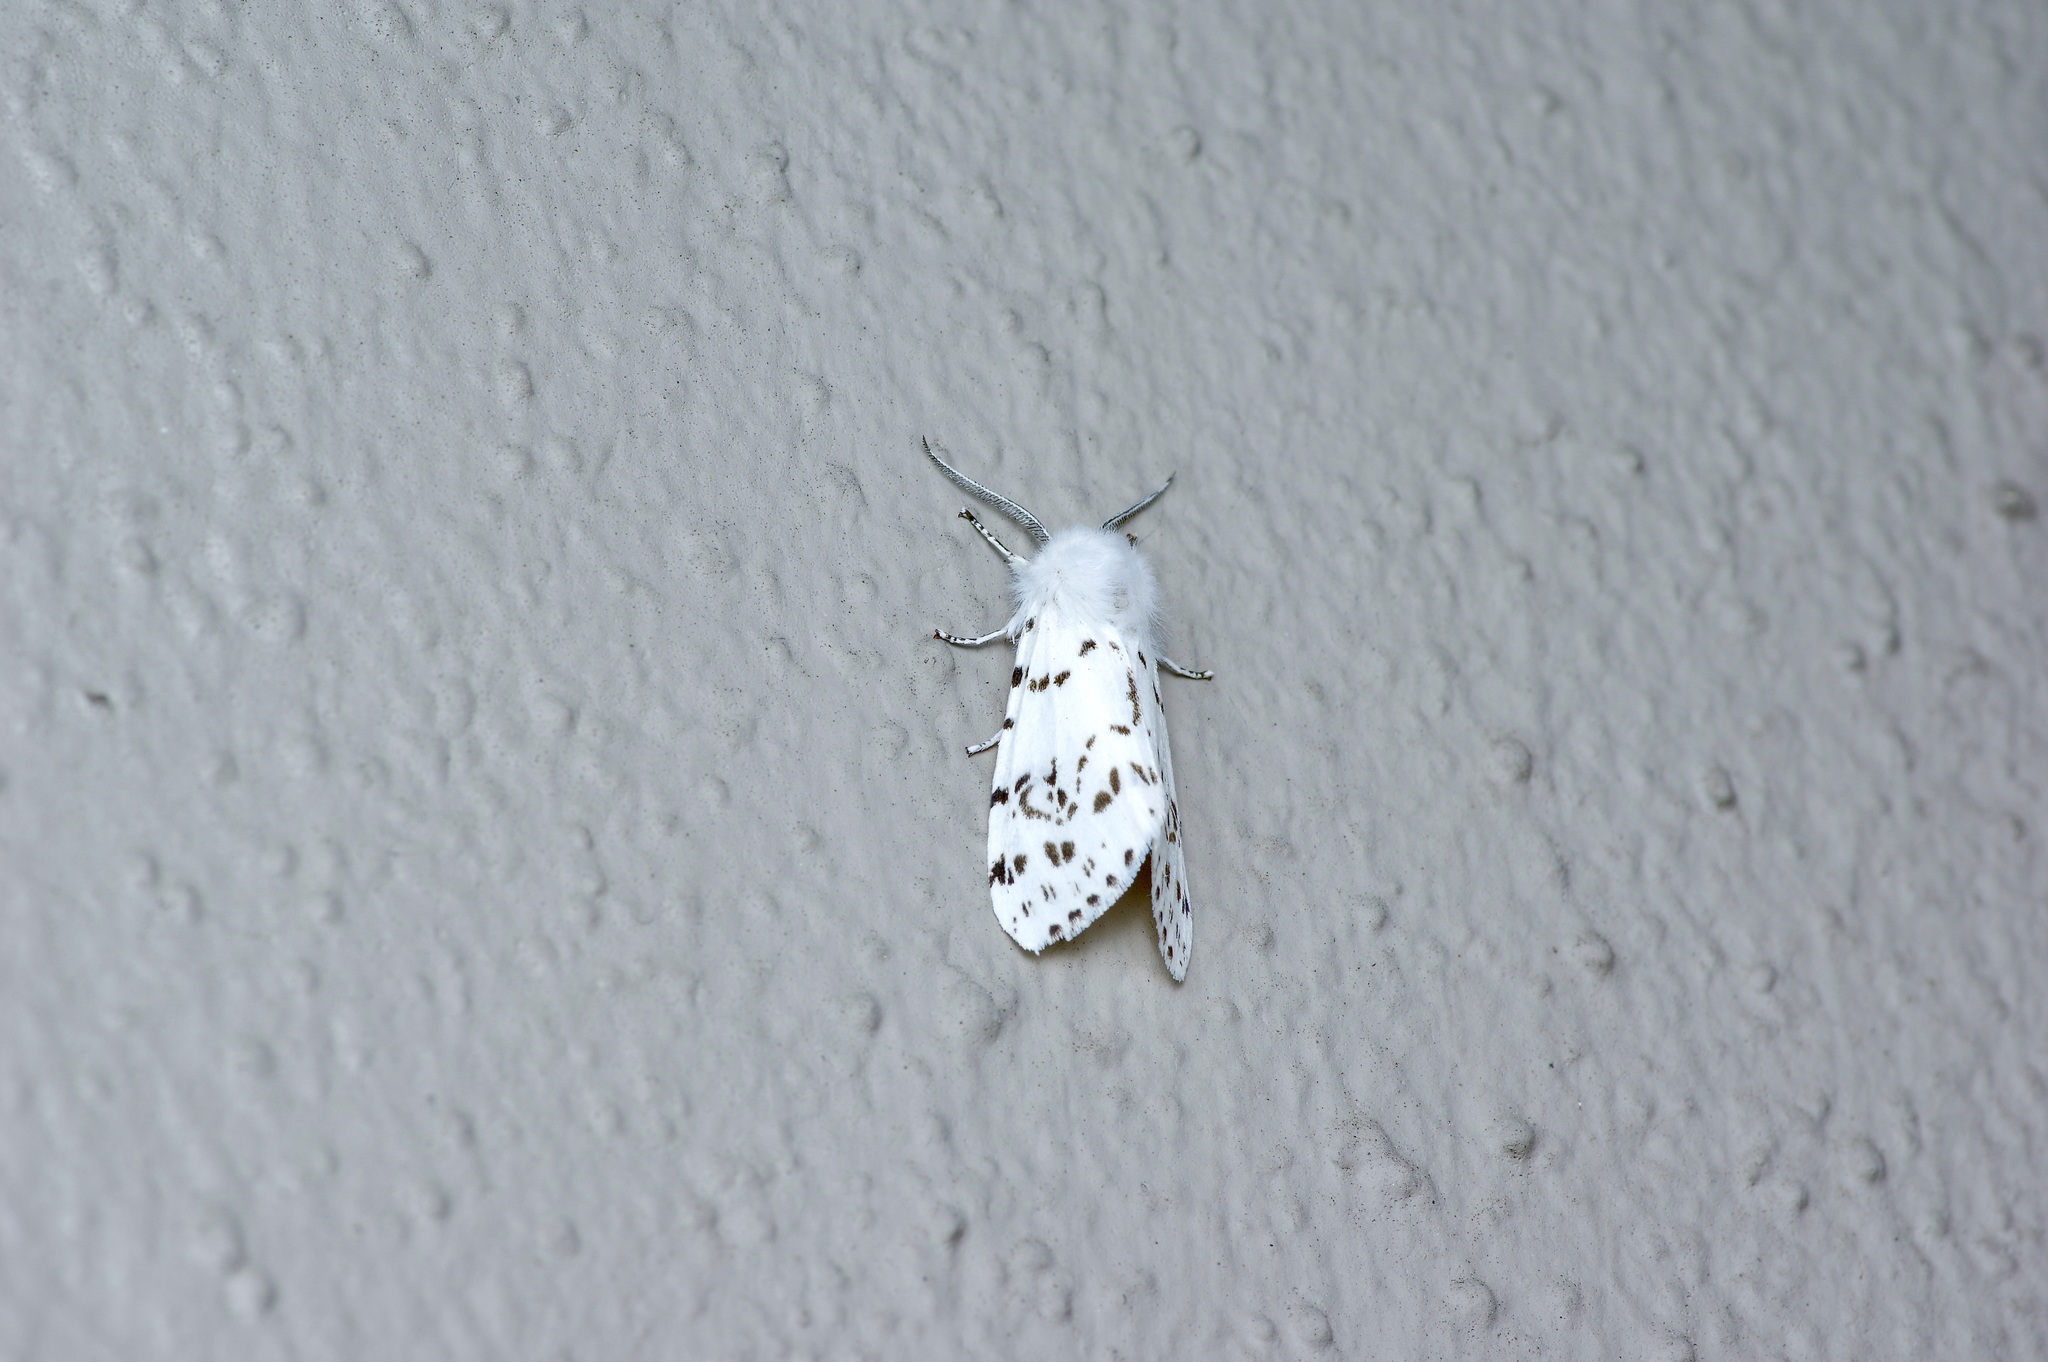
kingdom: Animalia
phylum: Arthropoda
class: Insecta
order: Lepidoptera
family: Erebidae
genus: Hyphantria
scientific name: Hyphantria cunea
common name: American white moth
